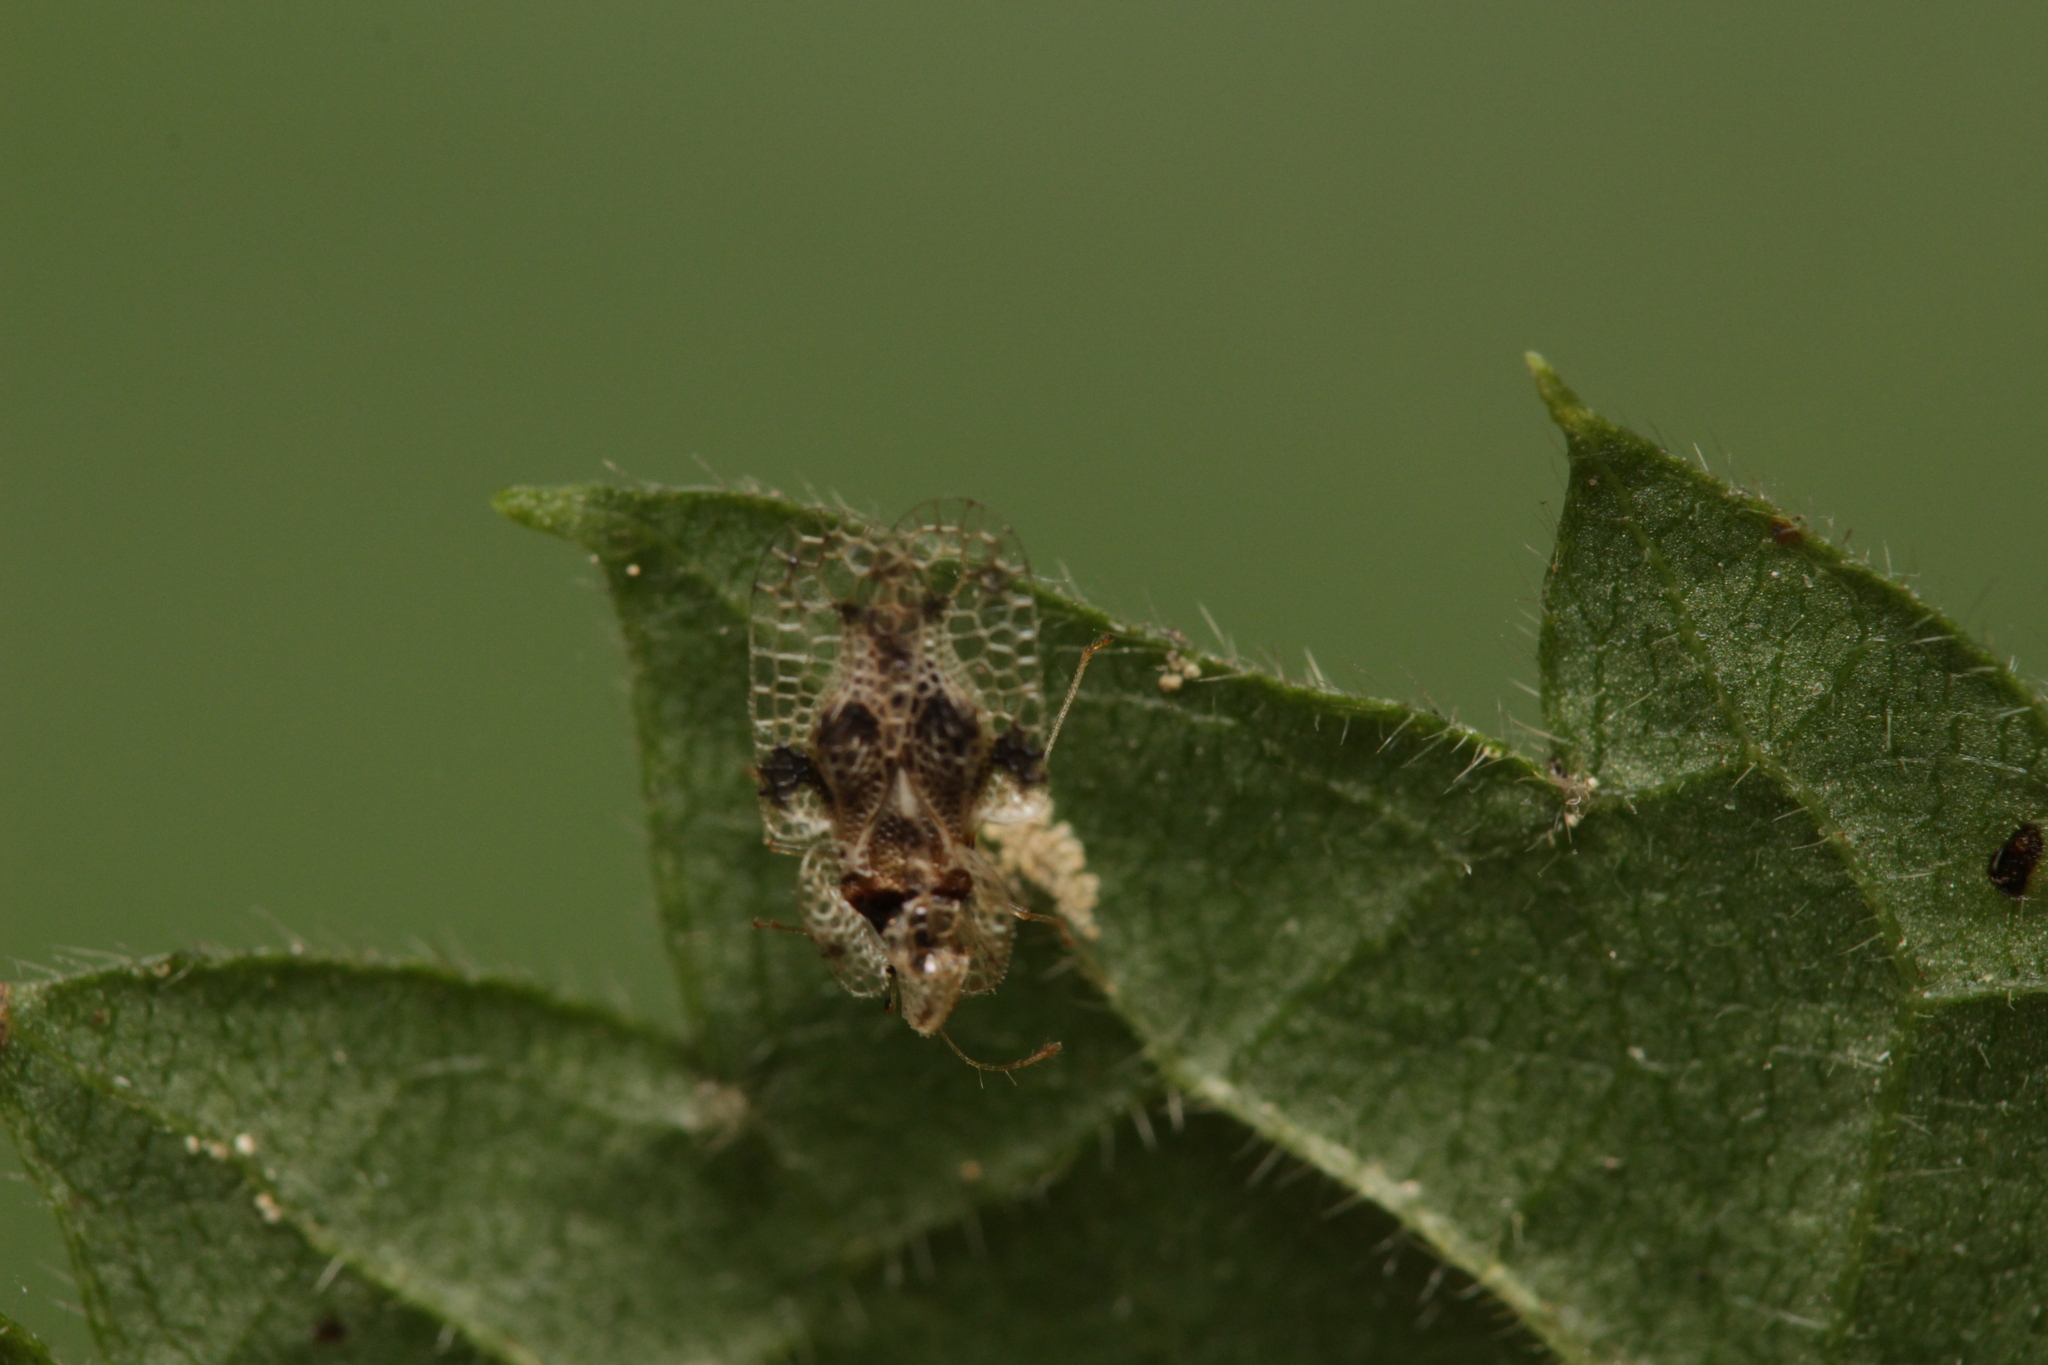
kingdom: Animalia
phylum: Arthropoda
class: Insecta
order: Hemiptera
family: Tingidae
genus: Corythucha
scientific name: Corythucha arcuata
